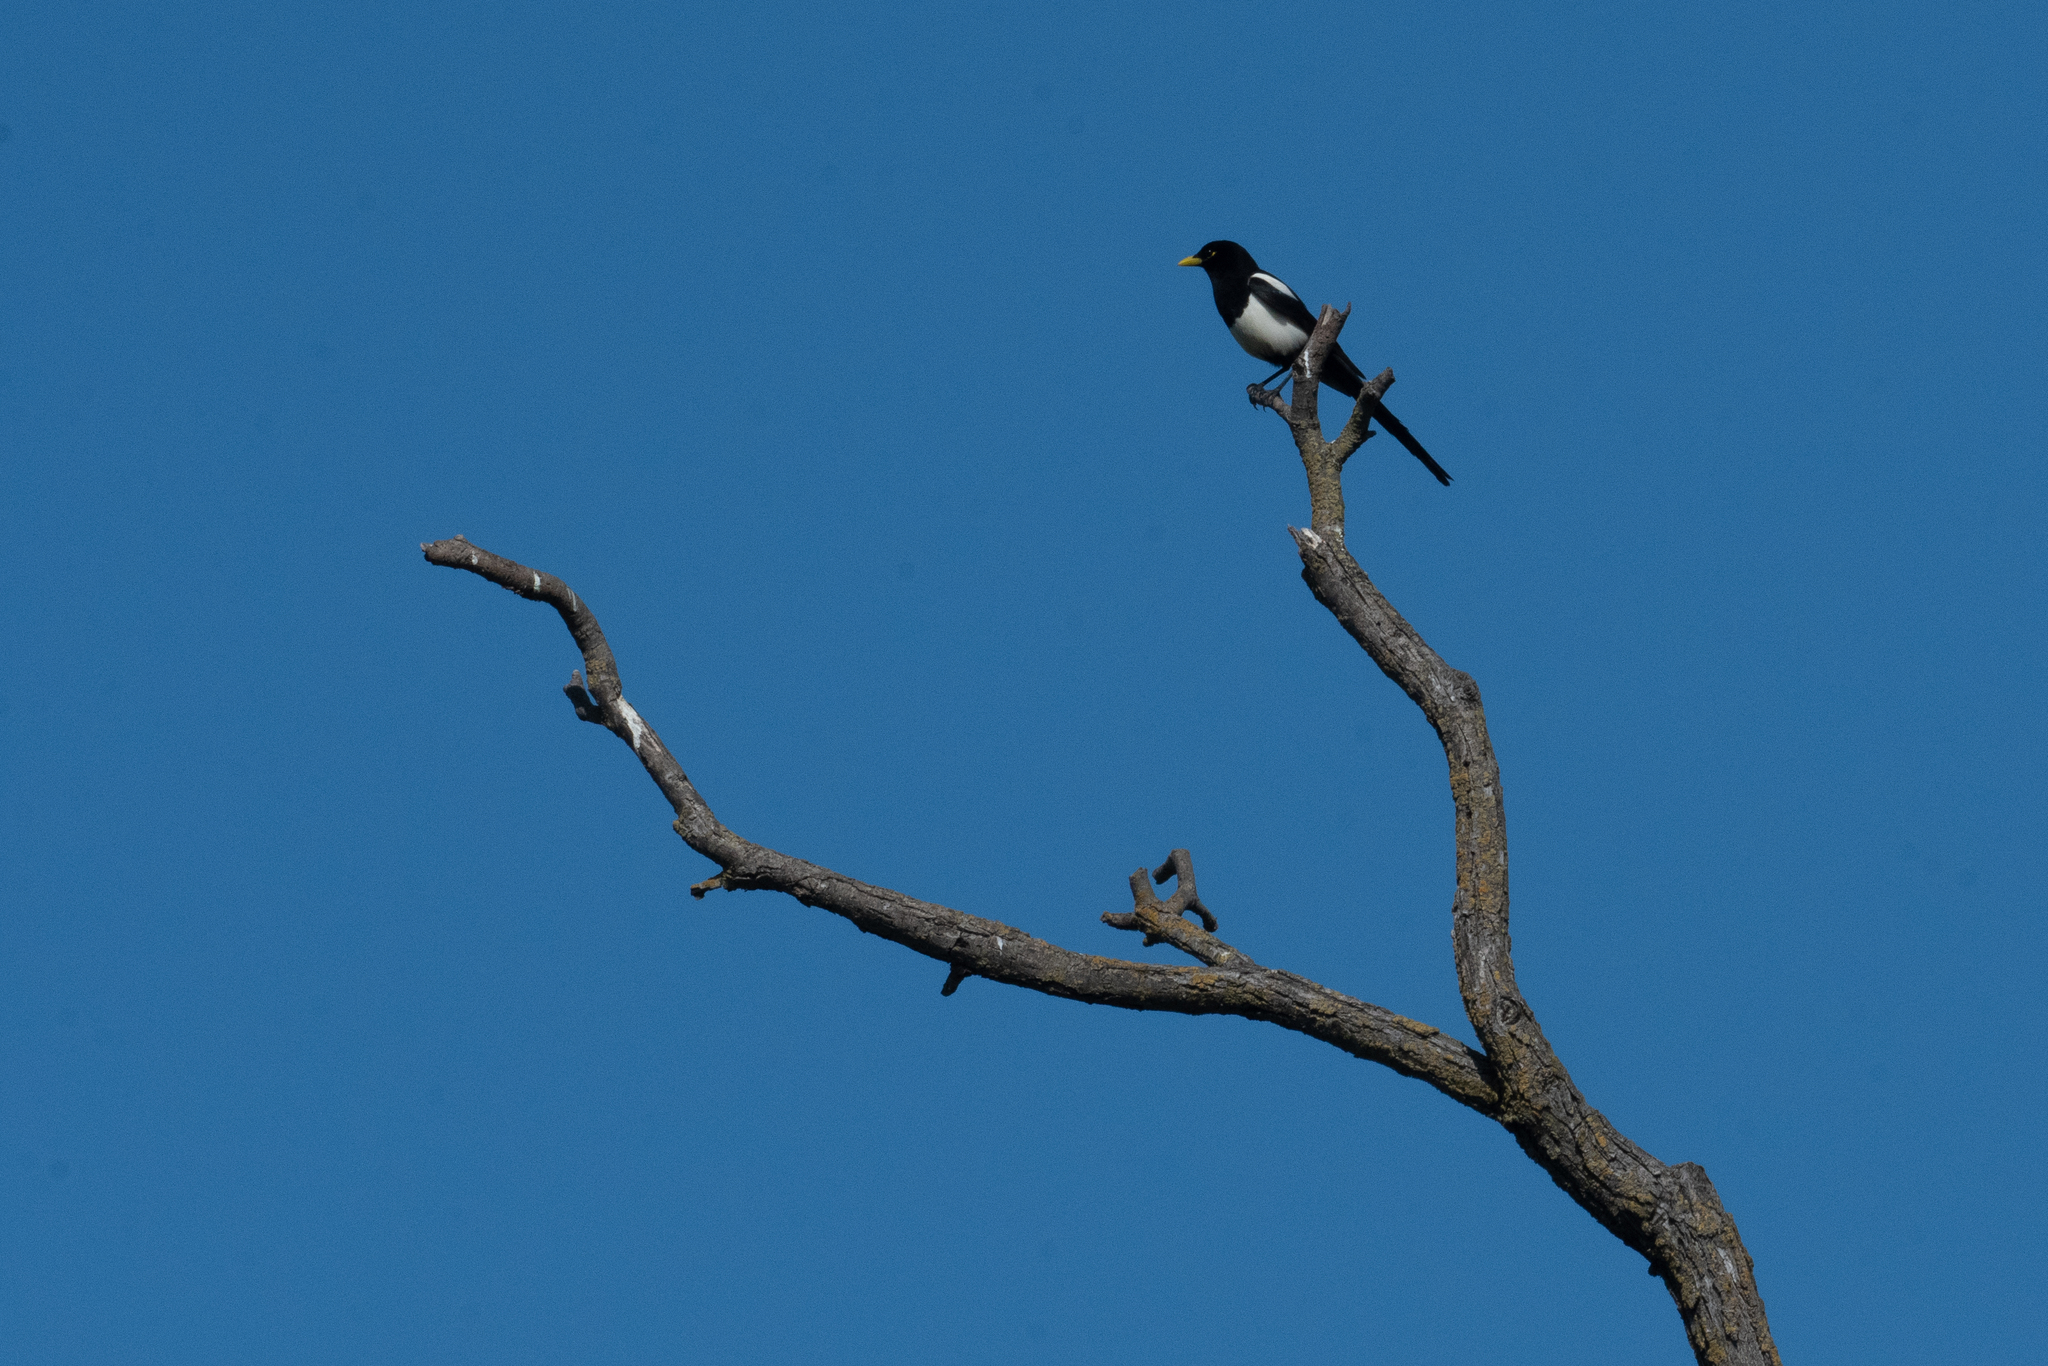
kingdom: Animalia
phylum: Chordata
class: Aves
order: Passeriformes
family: Corvidae
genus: Pica
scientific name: Pica nuttalli
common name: Yellow-billed magpie
